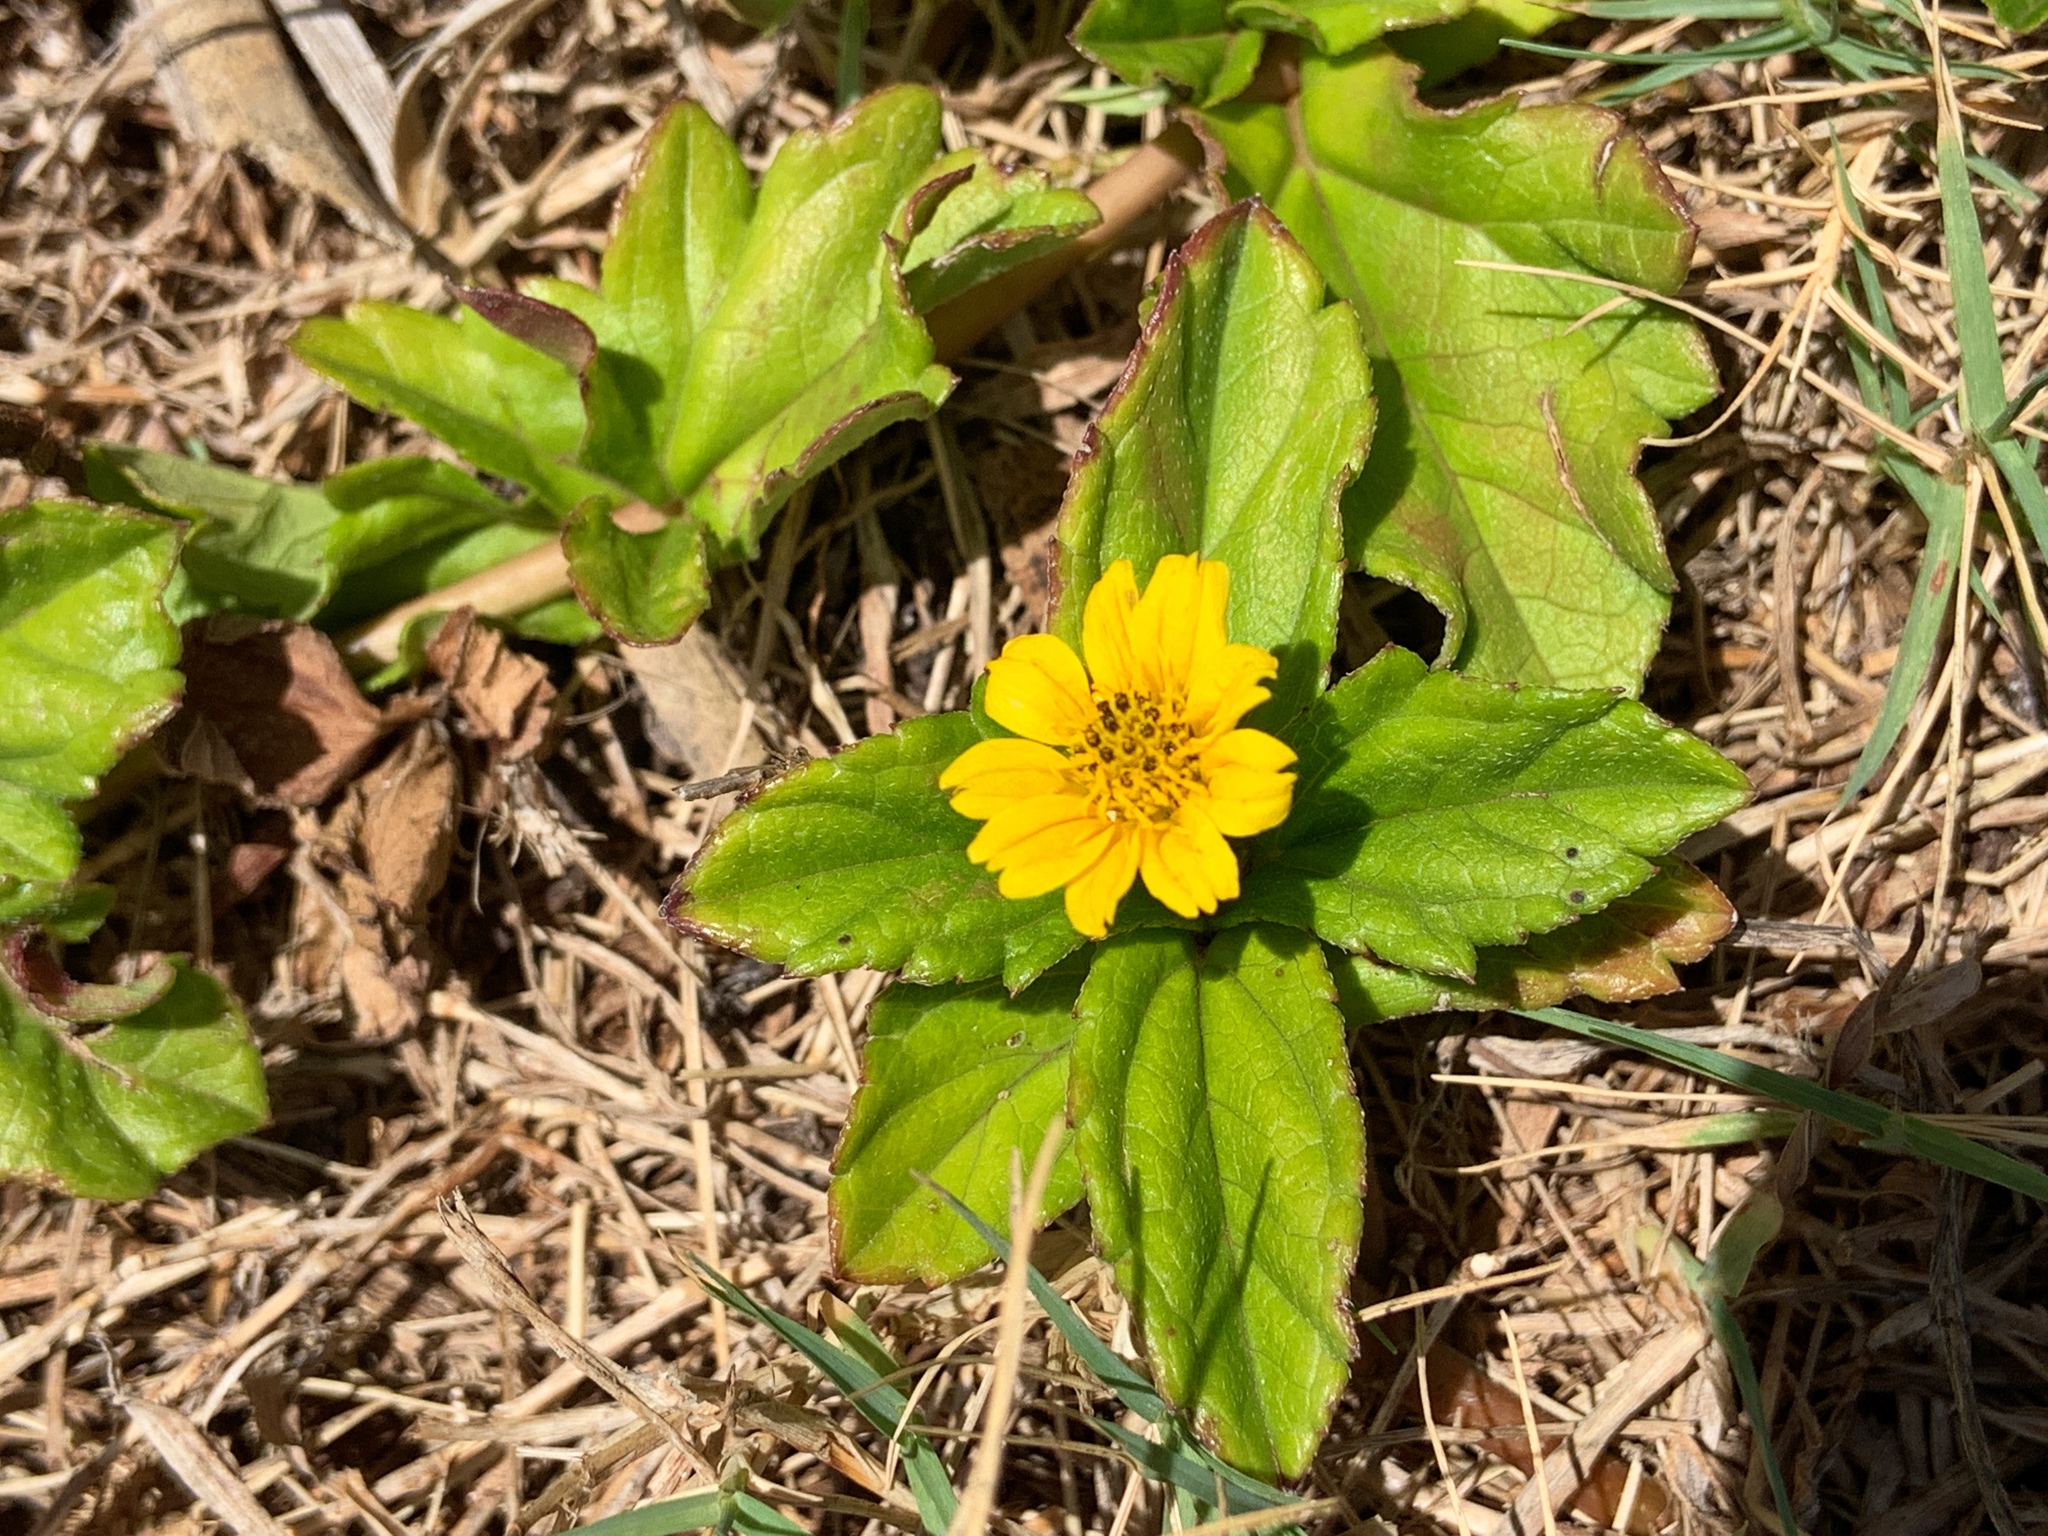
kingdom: Plantae
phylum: Tracheophyta
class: Magnoliopsida
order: Asterales
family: Asteraceae
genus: Sphagneticola
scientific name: Sphagneticola trilobata
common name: Bay biscayne creeping-oxeye
